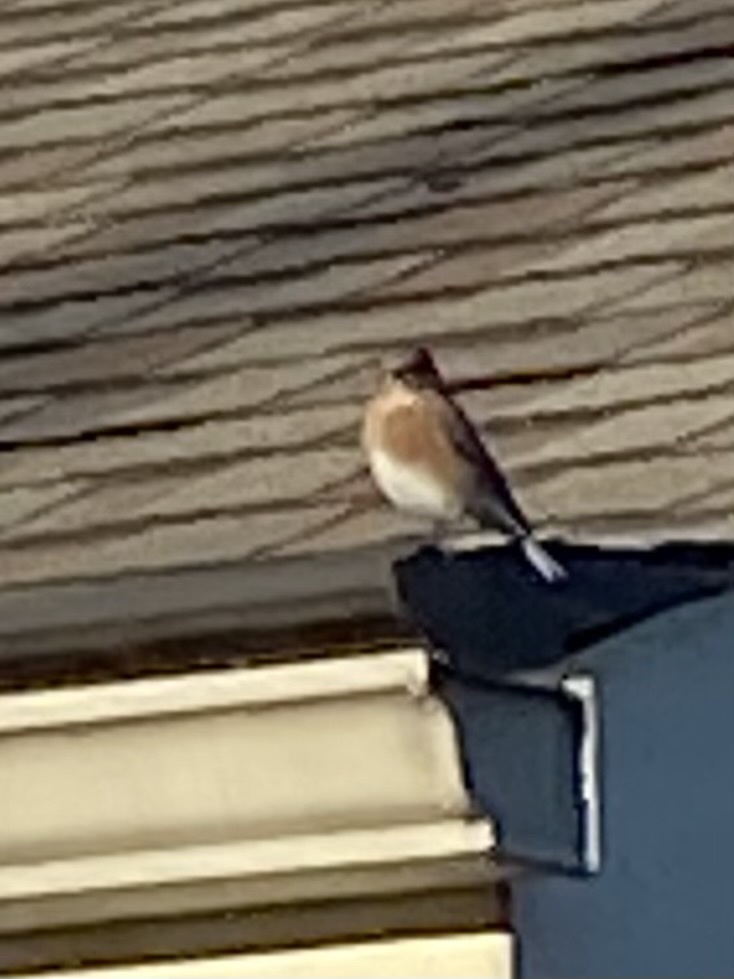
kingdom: Animalia
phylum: Chordata
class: Aves
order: Passeriformes
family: Turdidae
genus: Sialia
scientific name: Sialia sialis
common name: Eastern bluebird
